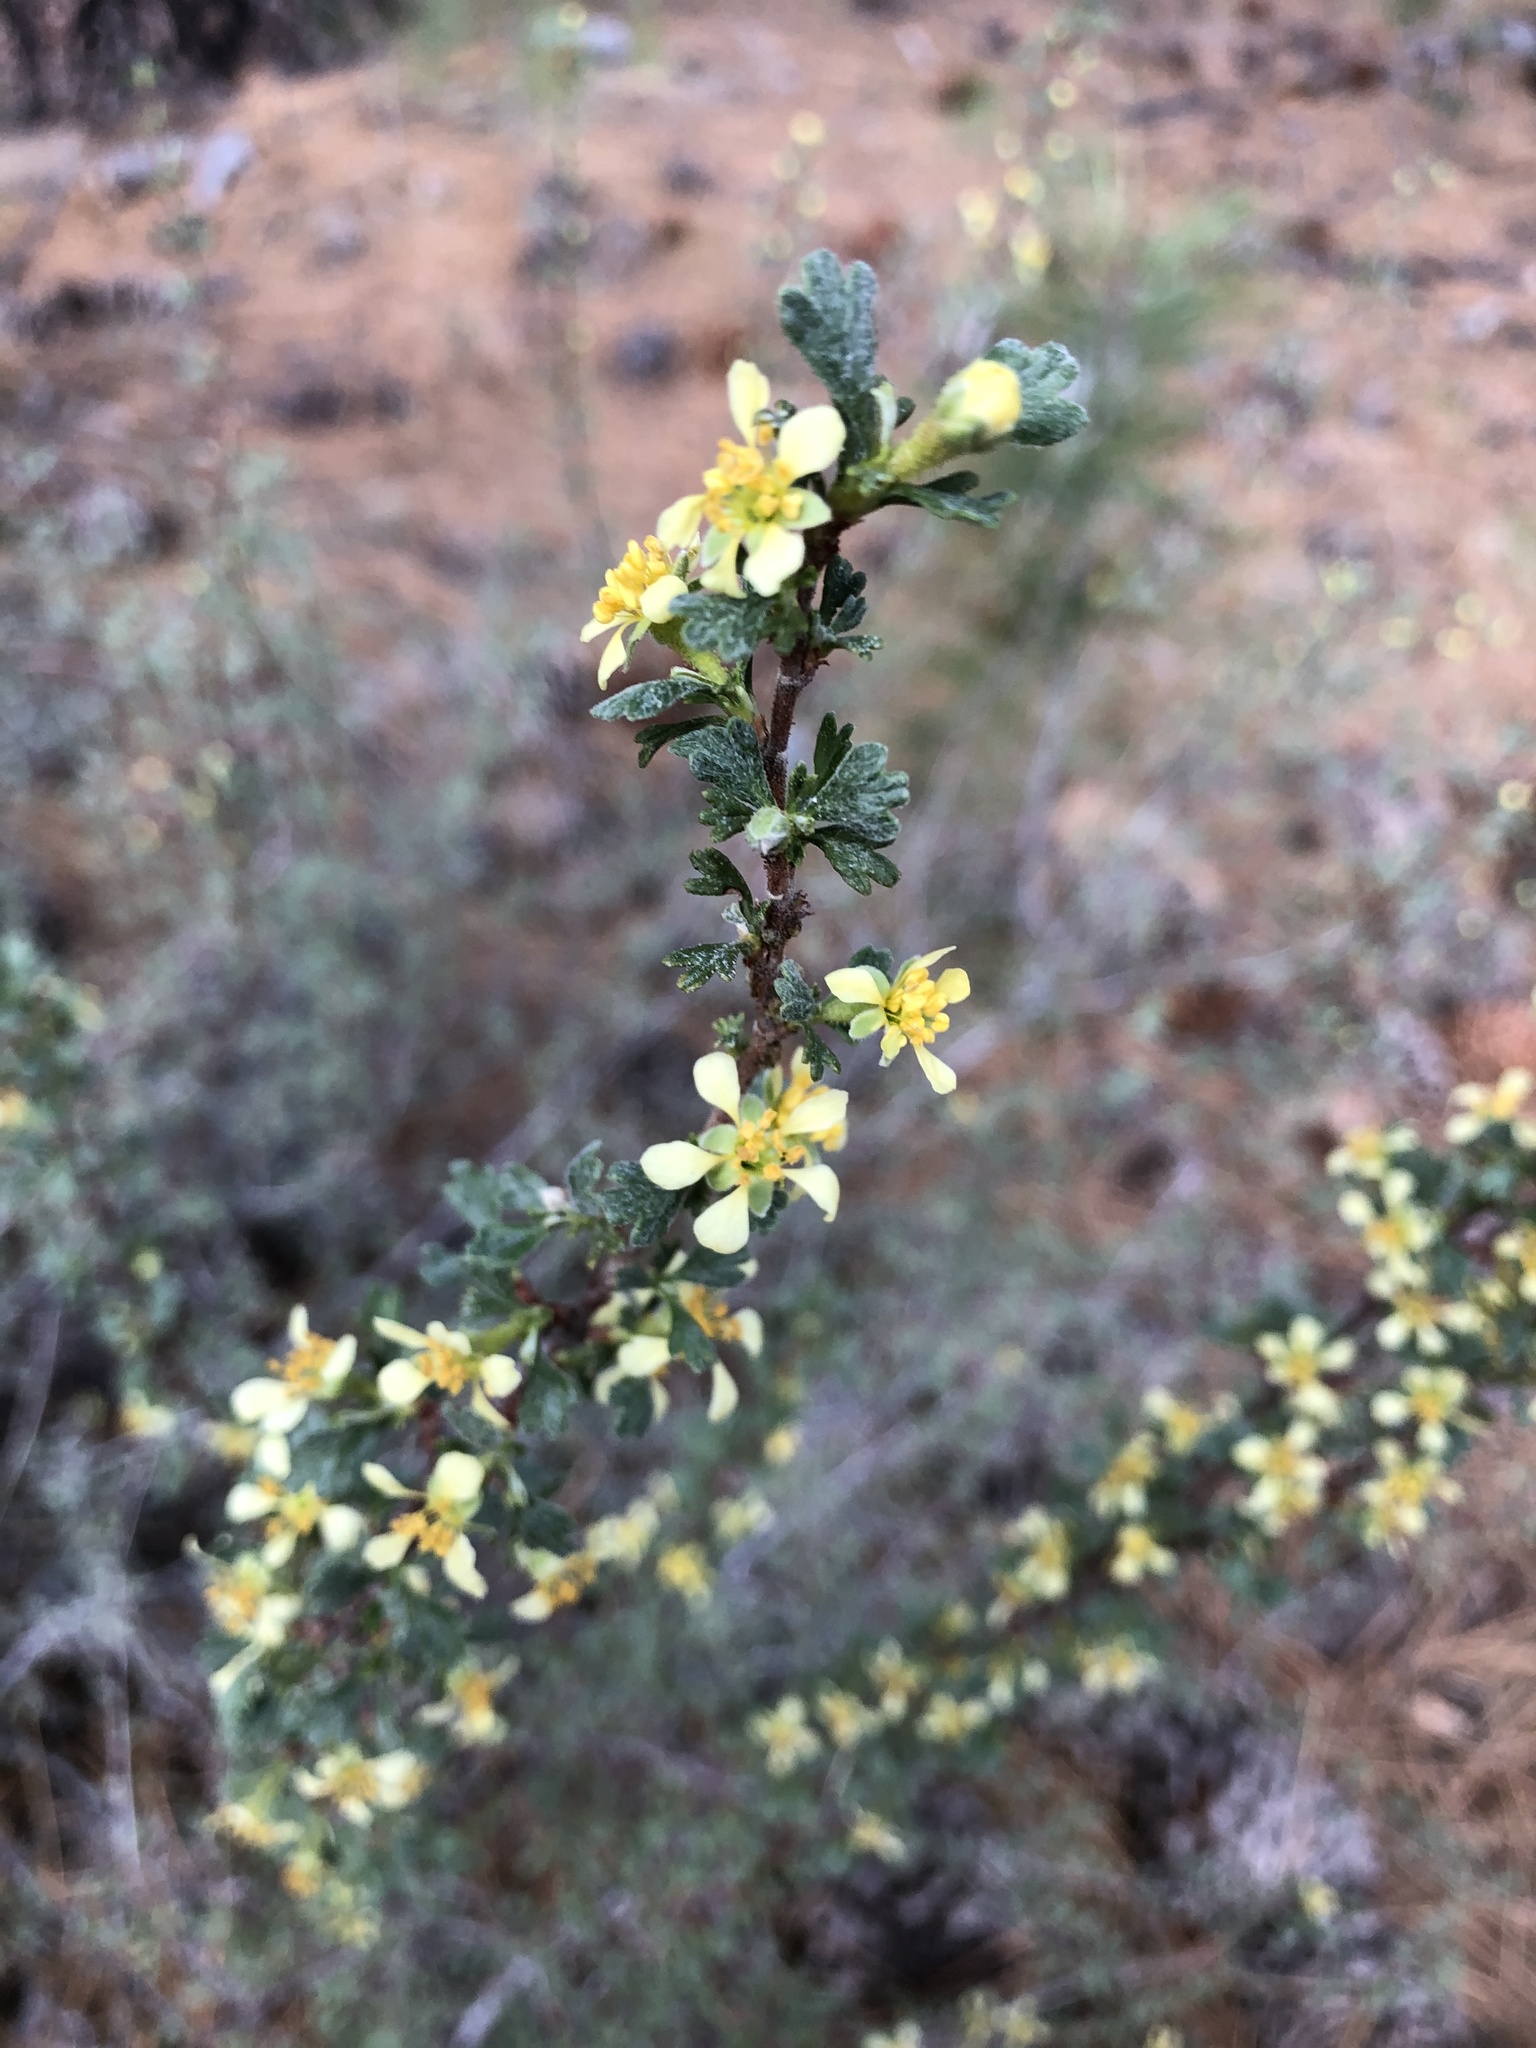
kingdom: Plantae
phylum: Tracheophyta
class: Magnoliopsida
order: Rosales
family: Rosaceae
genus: Purshia
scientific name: Purshia tridentata
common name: Antelope bitterbrush
